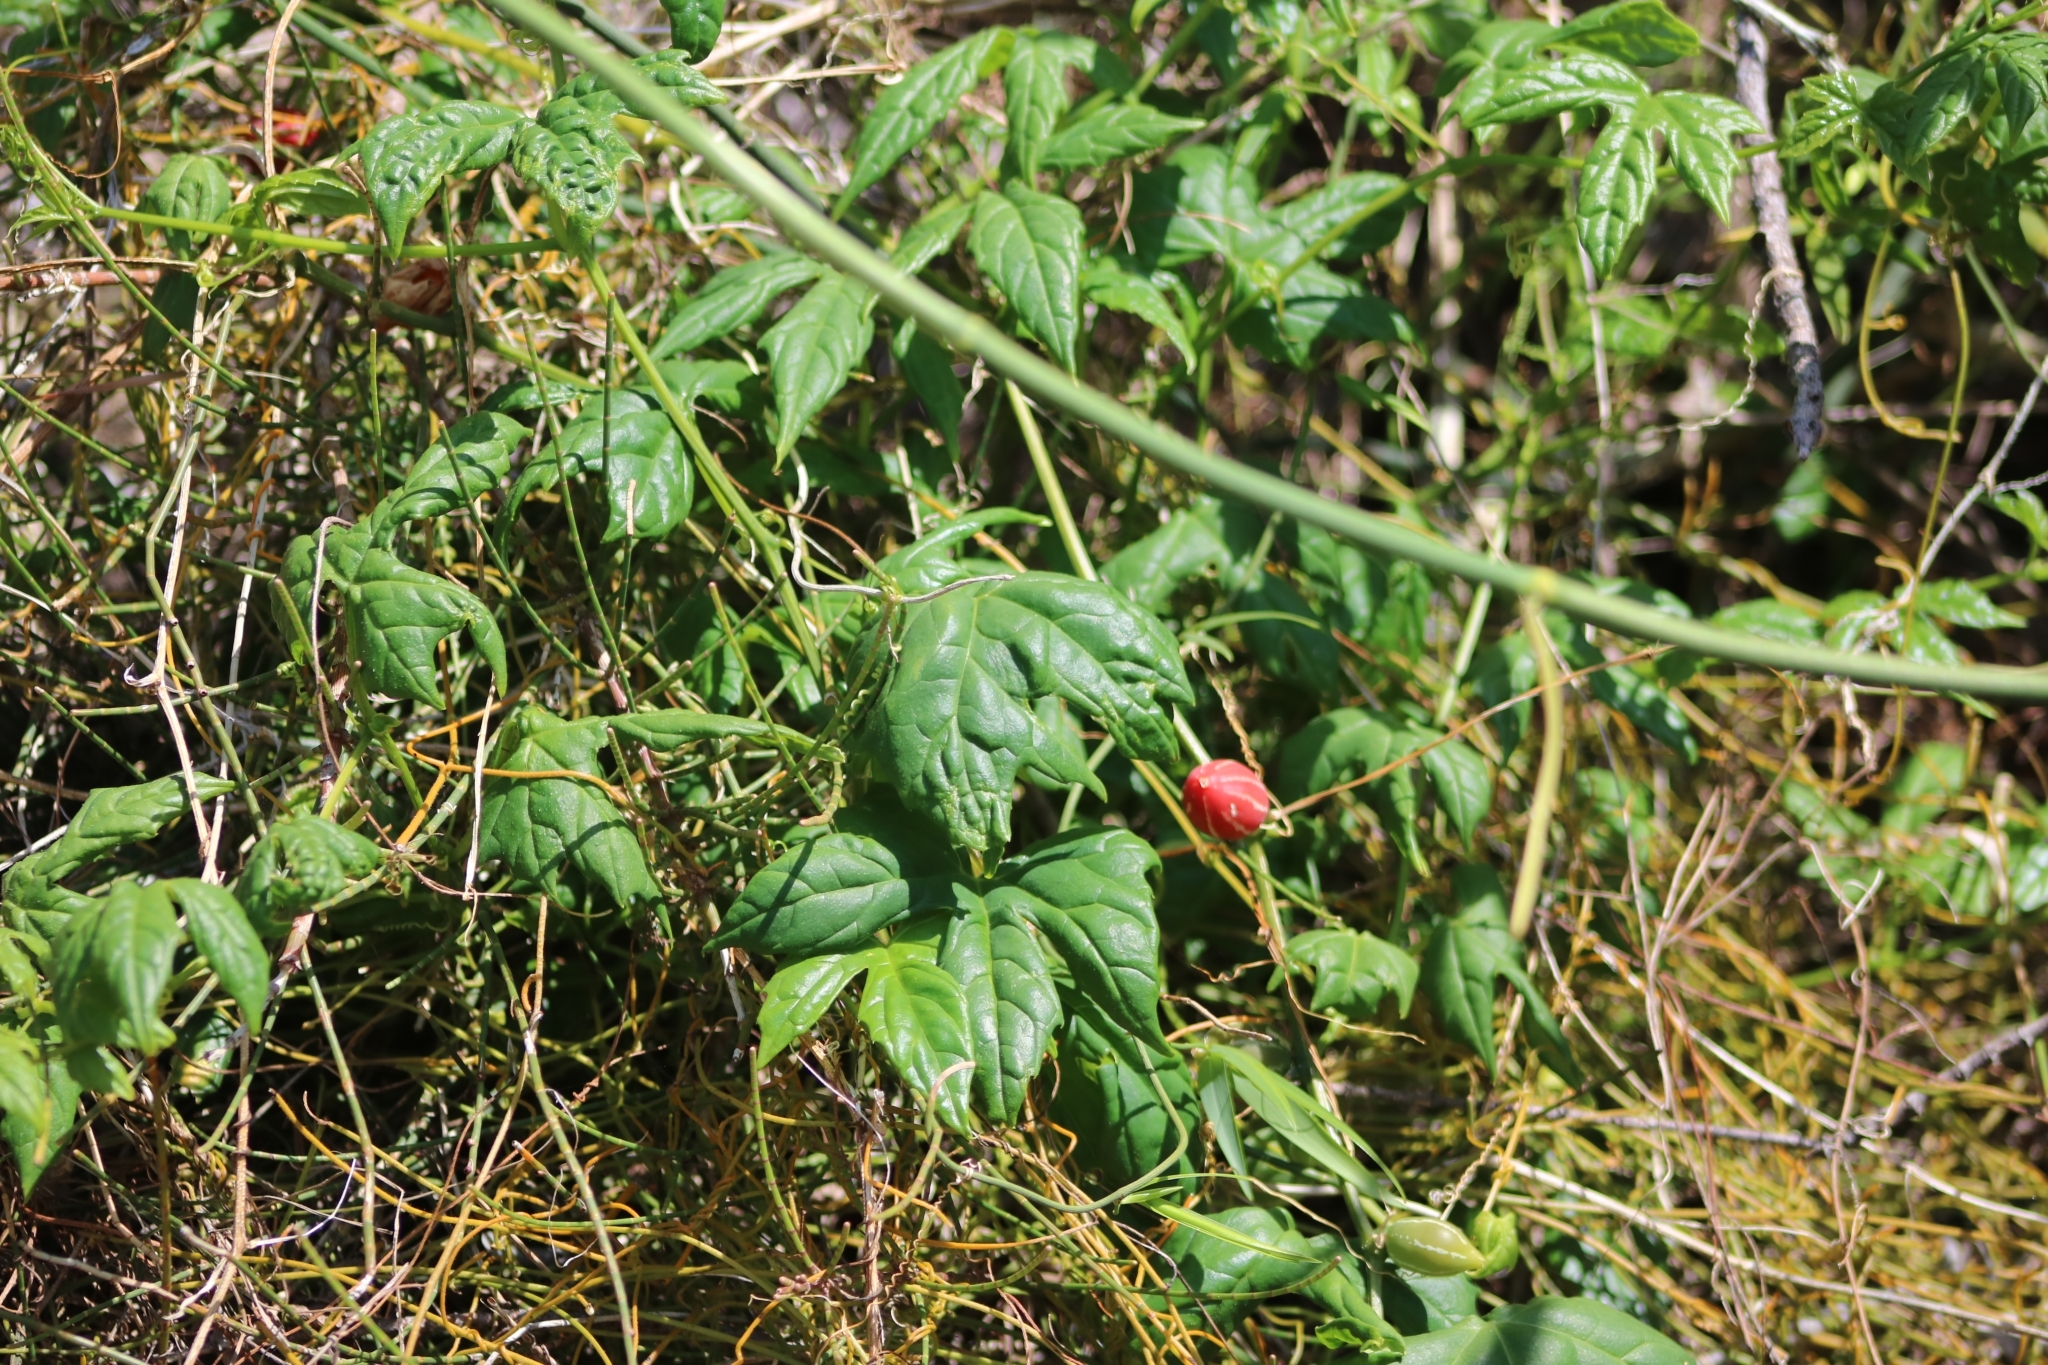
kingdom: Plantae
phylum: Tracheophyta
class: Magnoliopsida
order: Cucurbitales
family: Cucurbitaceae
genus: Diplocyclos
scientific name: Diplocyclos palmatus
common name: Striped-cucumber
